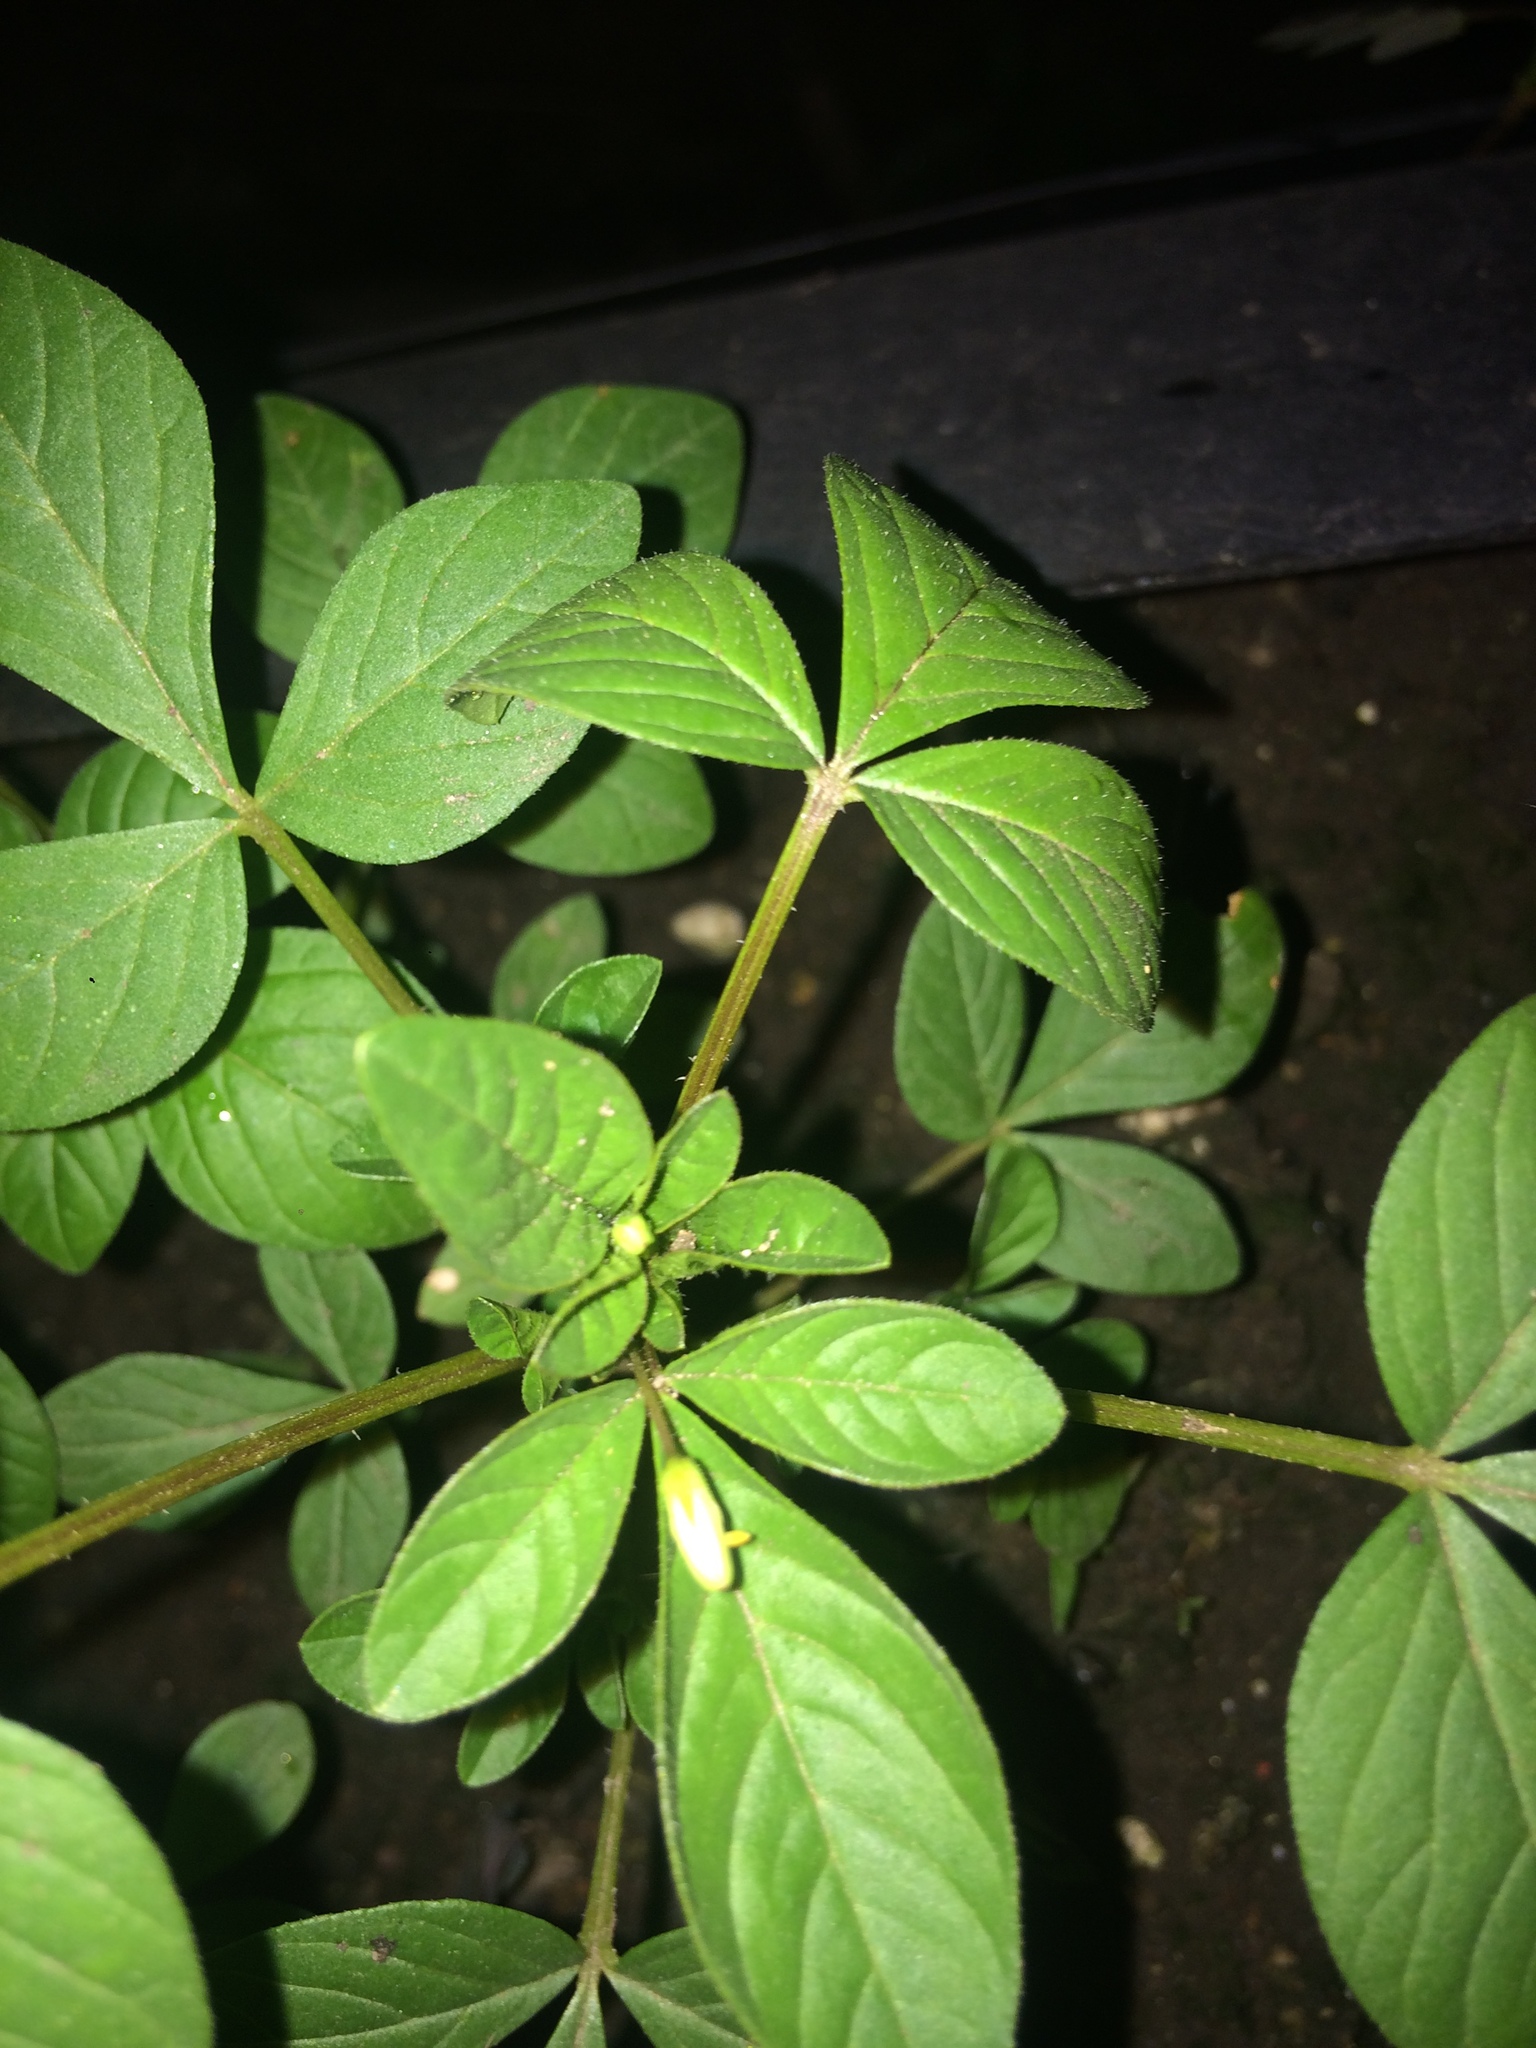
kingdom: Plantae
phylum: Tracheophyta
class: Magnoliopsida
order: Brassicales
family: Cleomaceae
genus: Sieruela
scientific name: Sieruela rutidosperma
